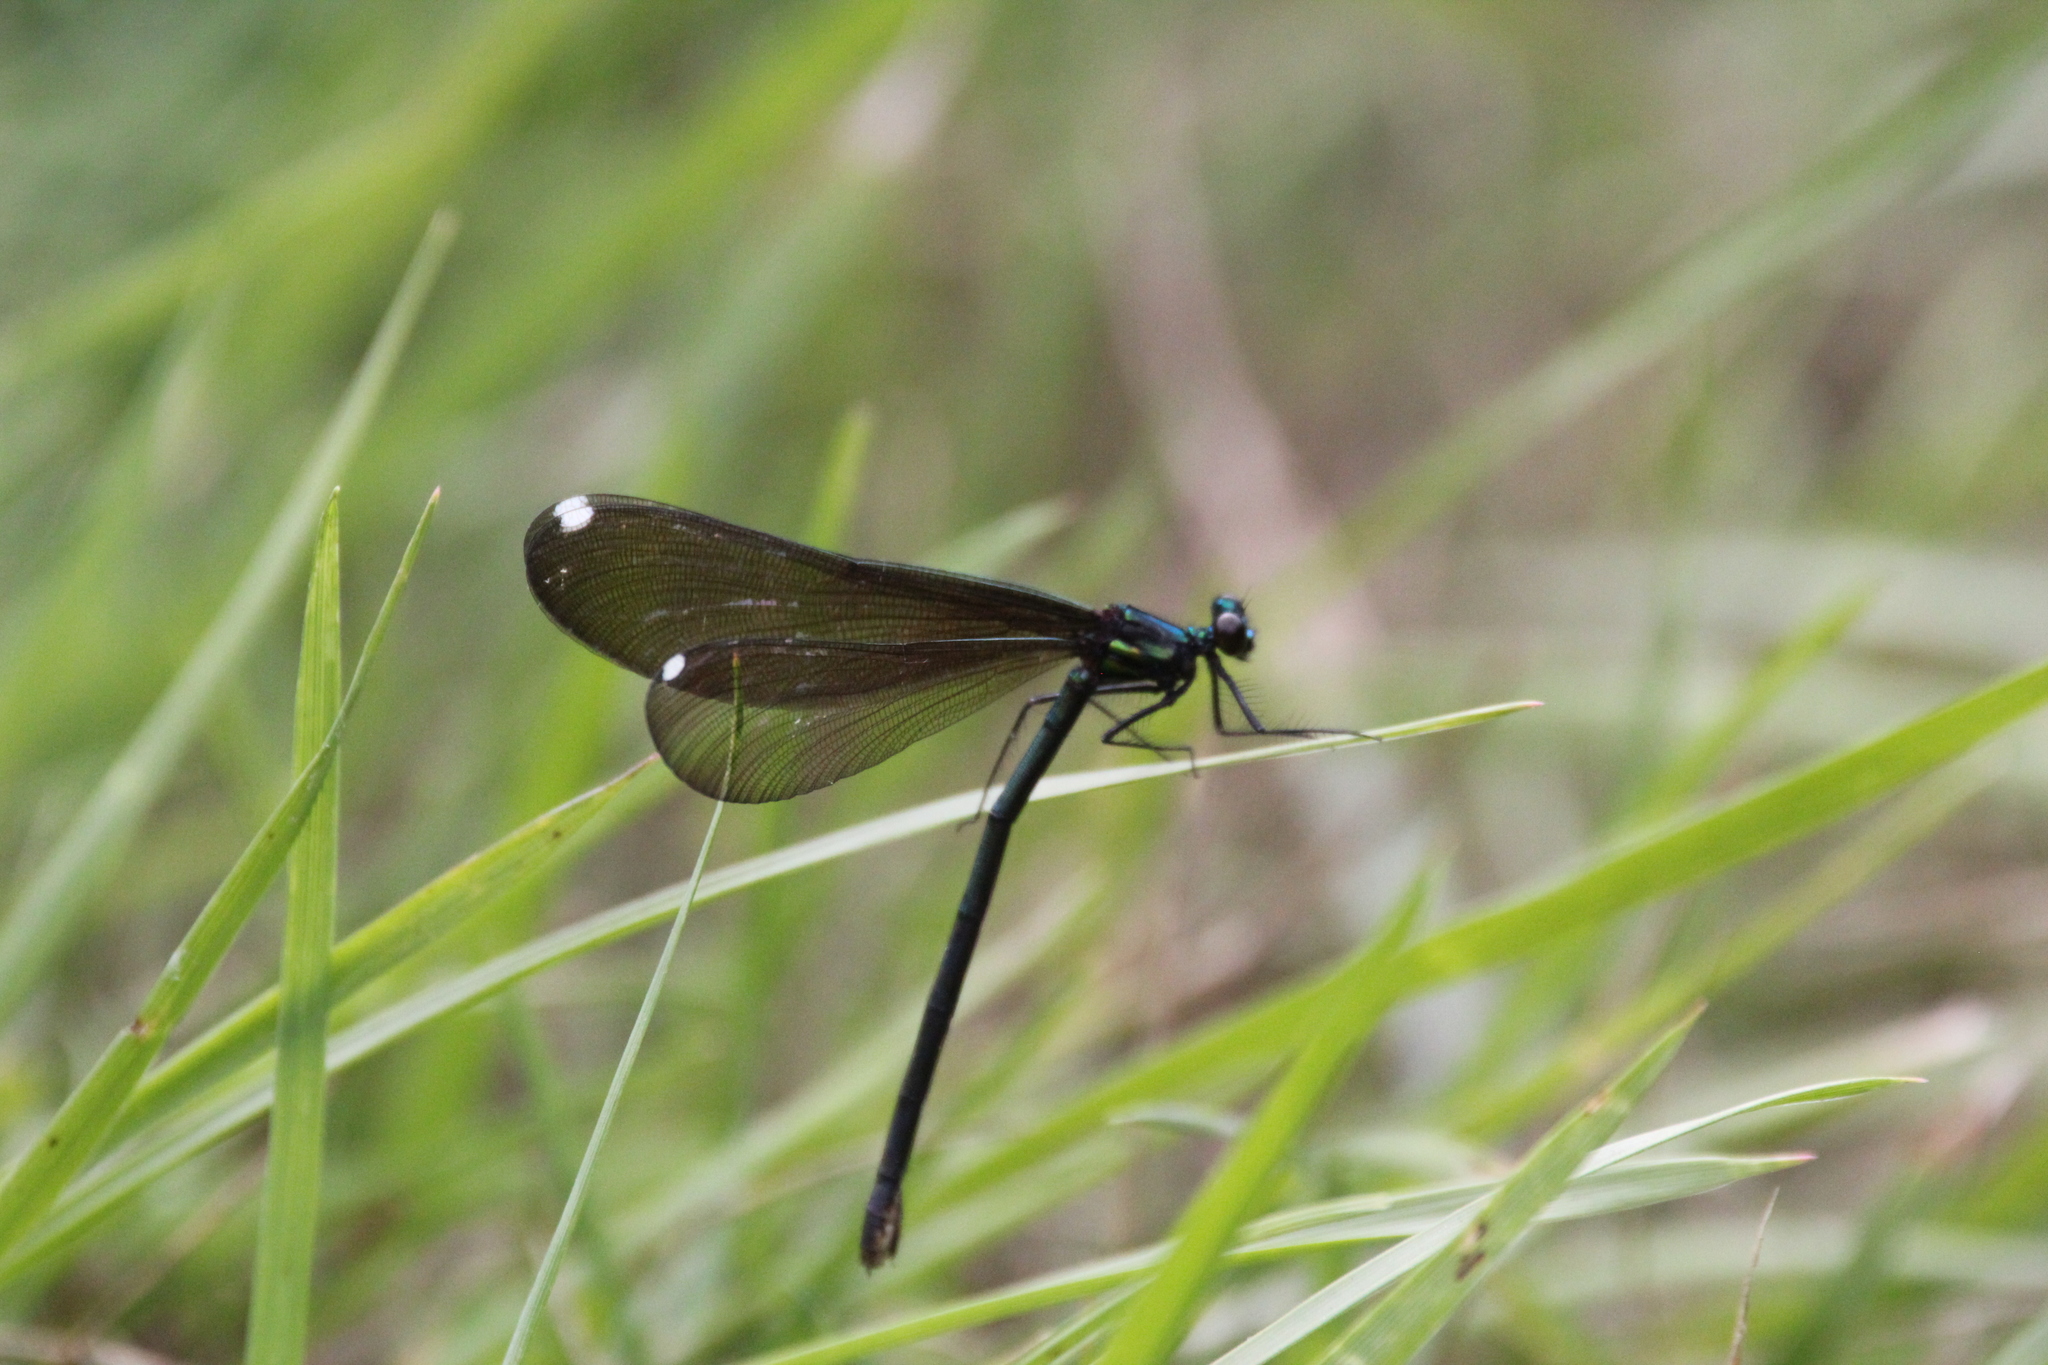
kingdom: Animalia
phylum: Arthropoda
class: Insecta
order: Odonata
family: Calopterygidae
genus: Calopteryx
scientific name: Calopteryx maculata
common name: Ebony jewelwing
